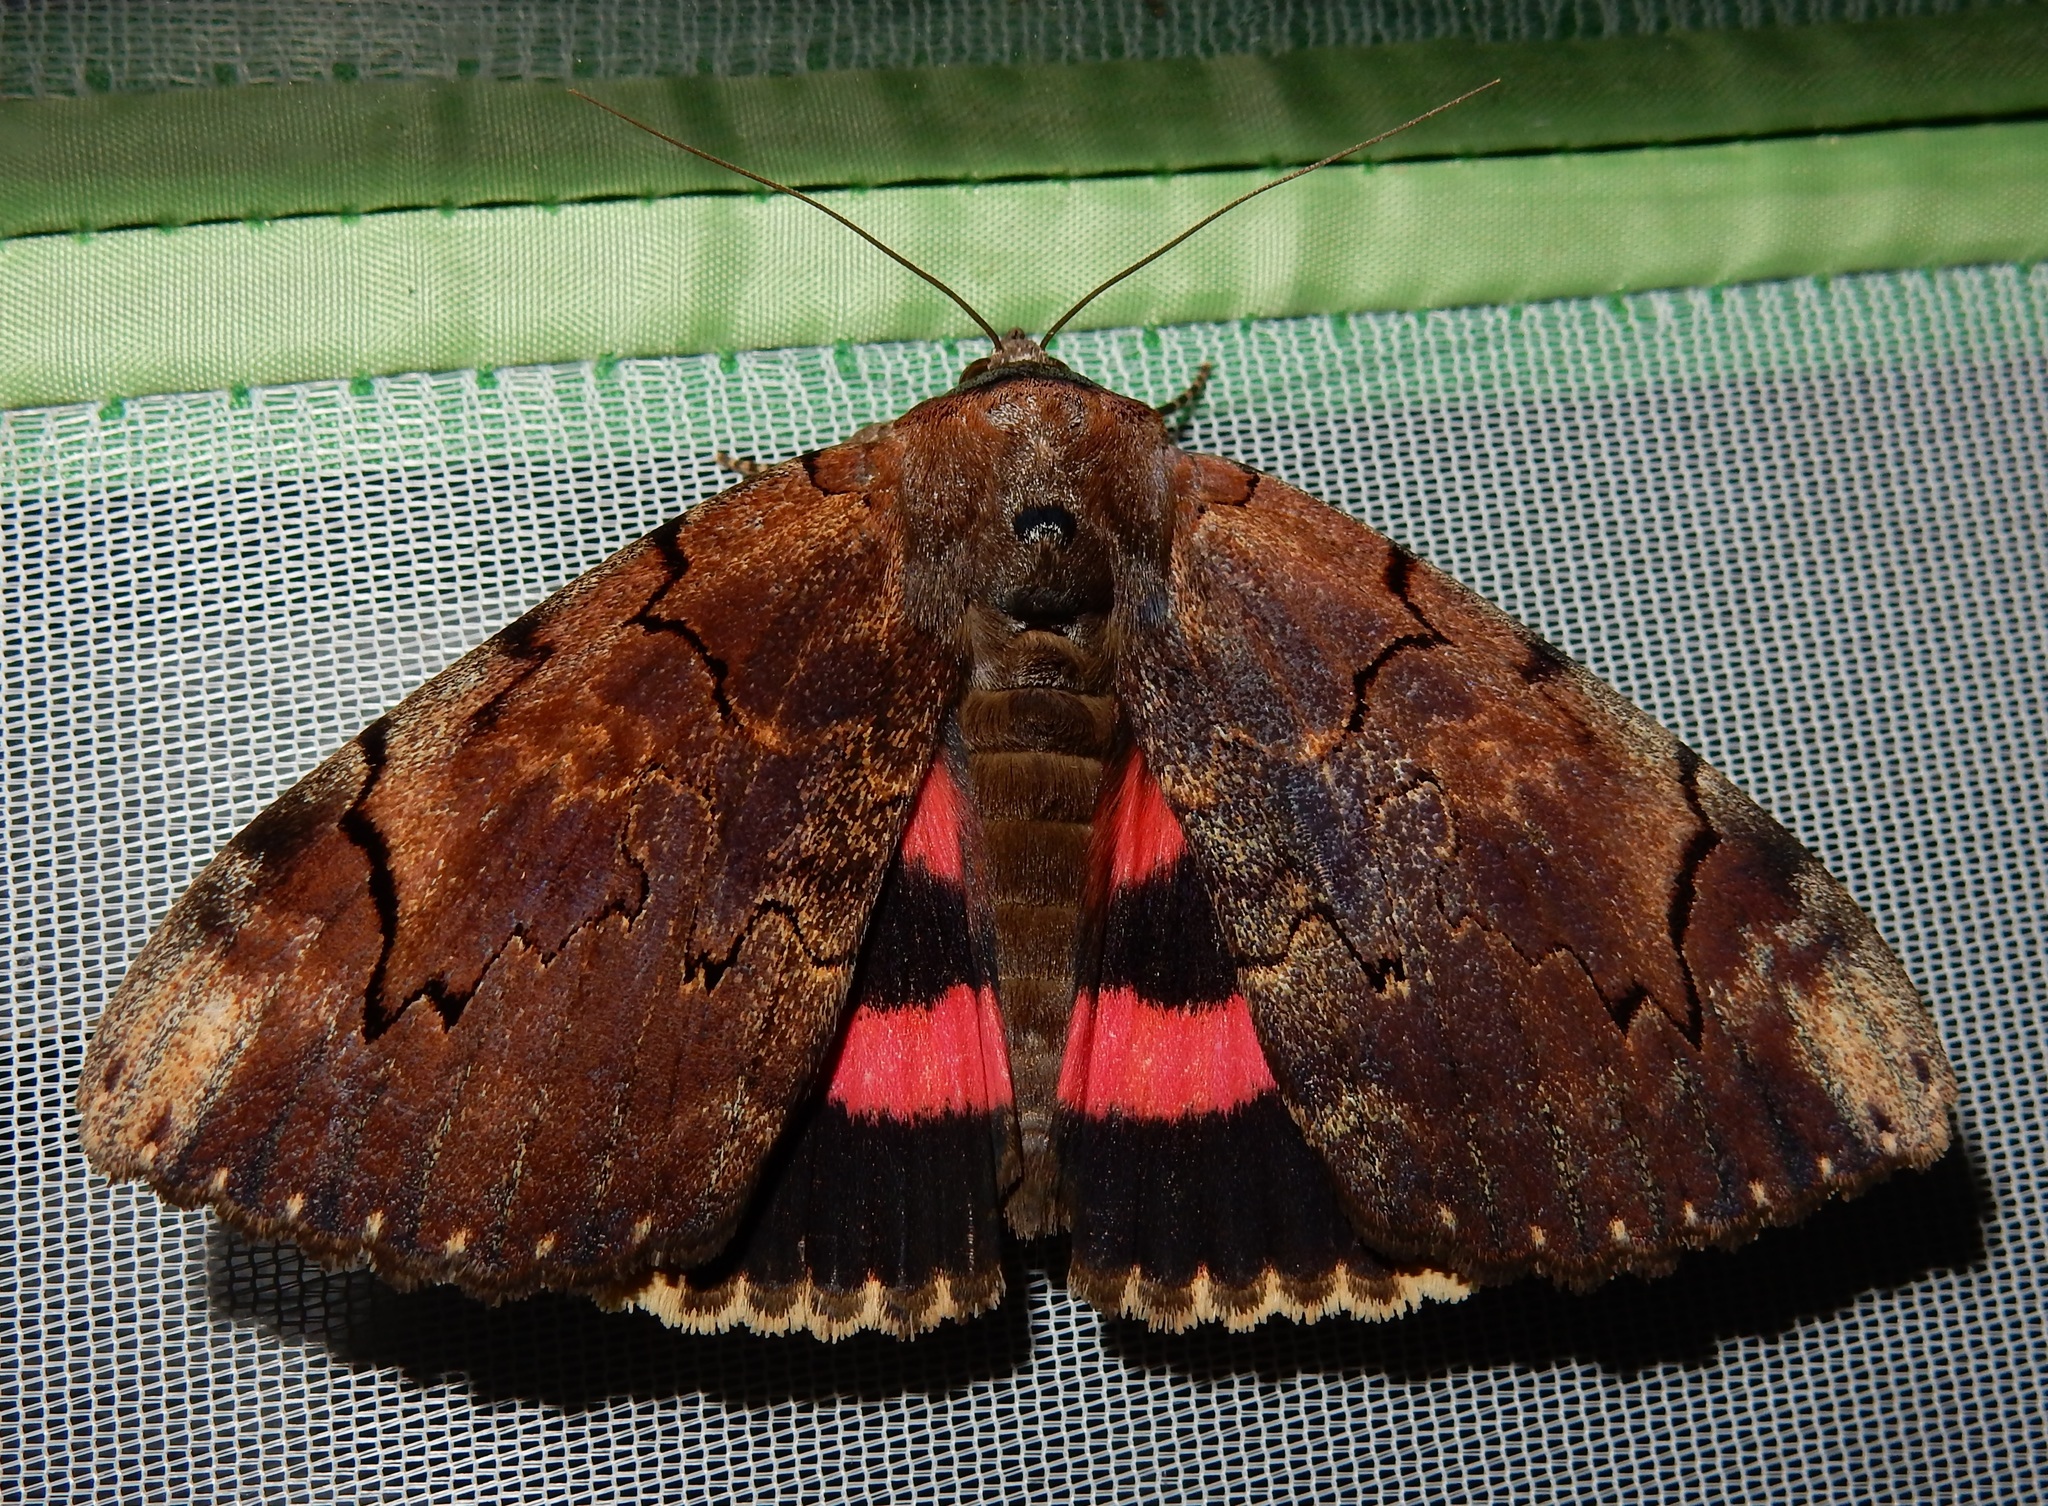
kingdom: Animalia
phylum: Arthropoda
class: Insecta
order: Lepidoptera
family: Erebidae
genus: Catocala
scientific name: Catocala carissima
